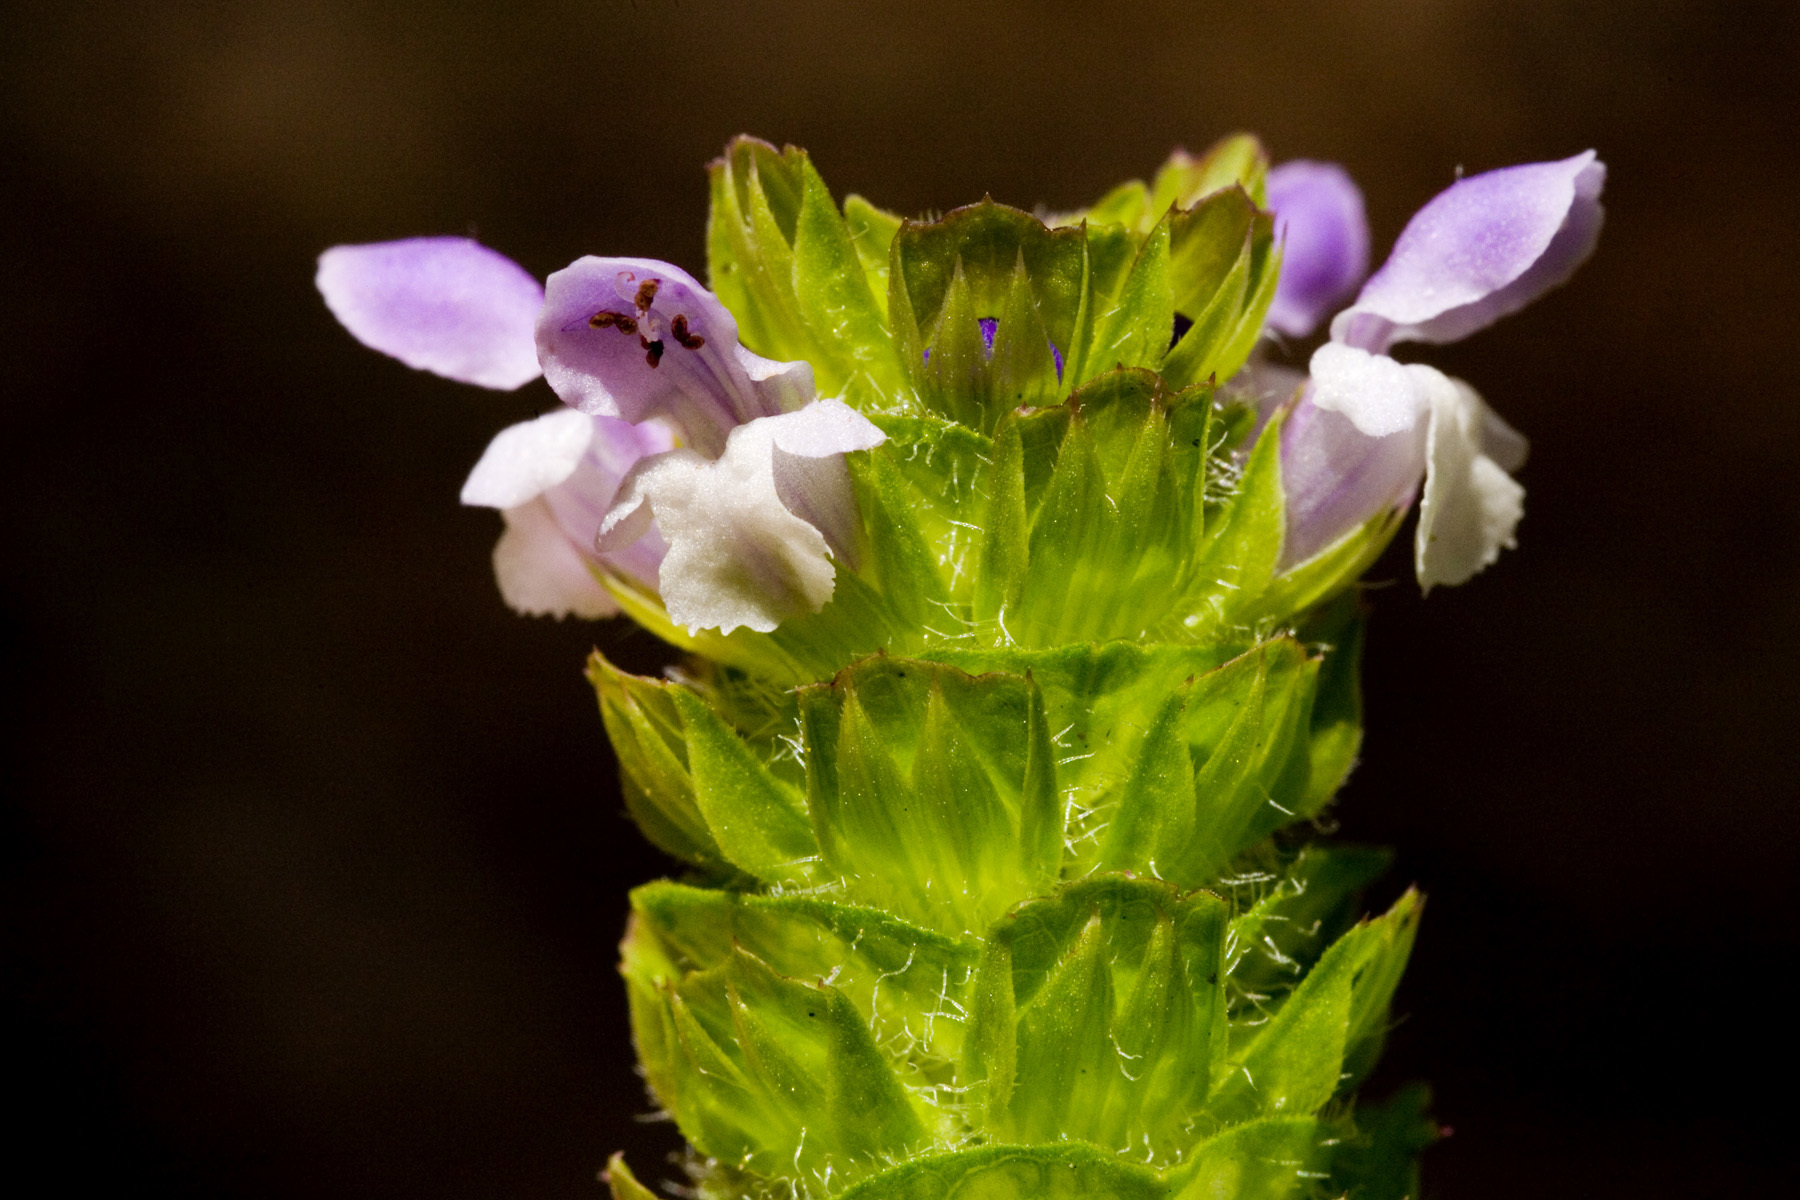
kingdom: Plantae
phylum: Tracheophyta
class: Magnoliopsida
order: Lamiales
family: Lamiaceae
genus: Prunella
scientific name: Prunella vulgaris
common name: Heal-all
